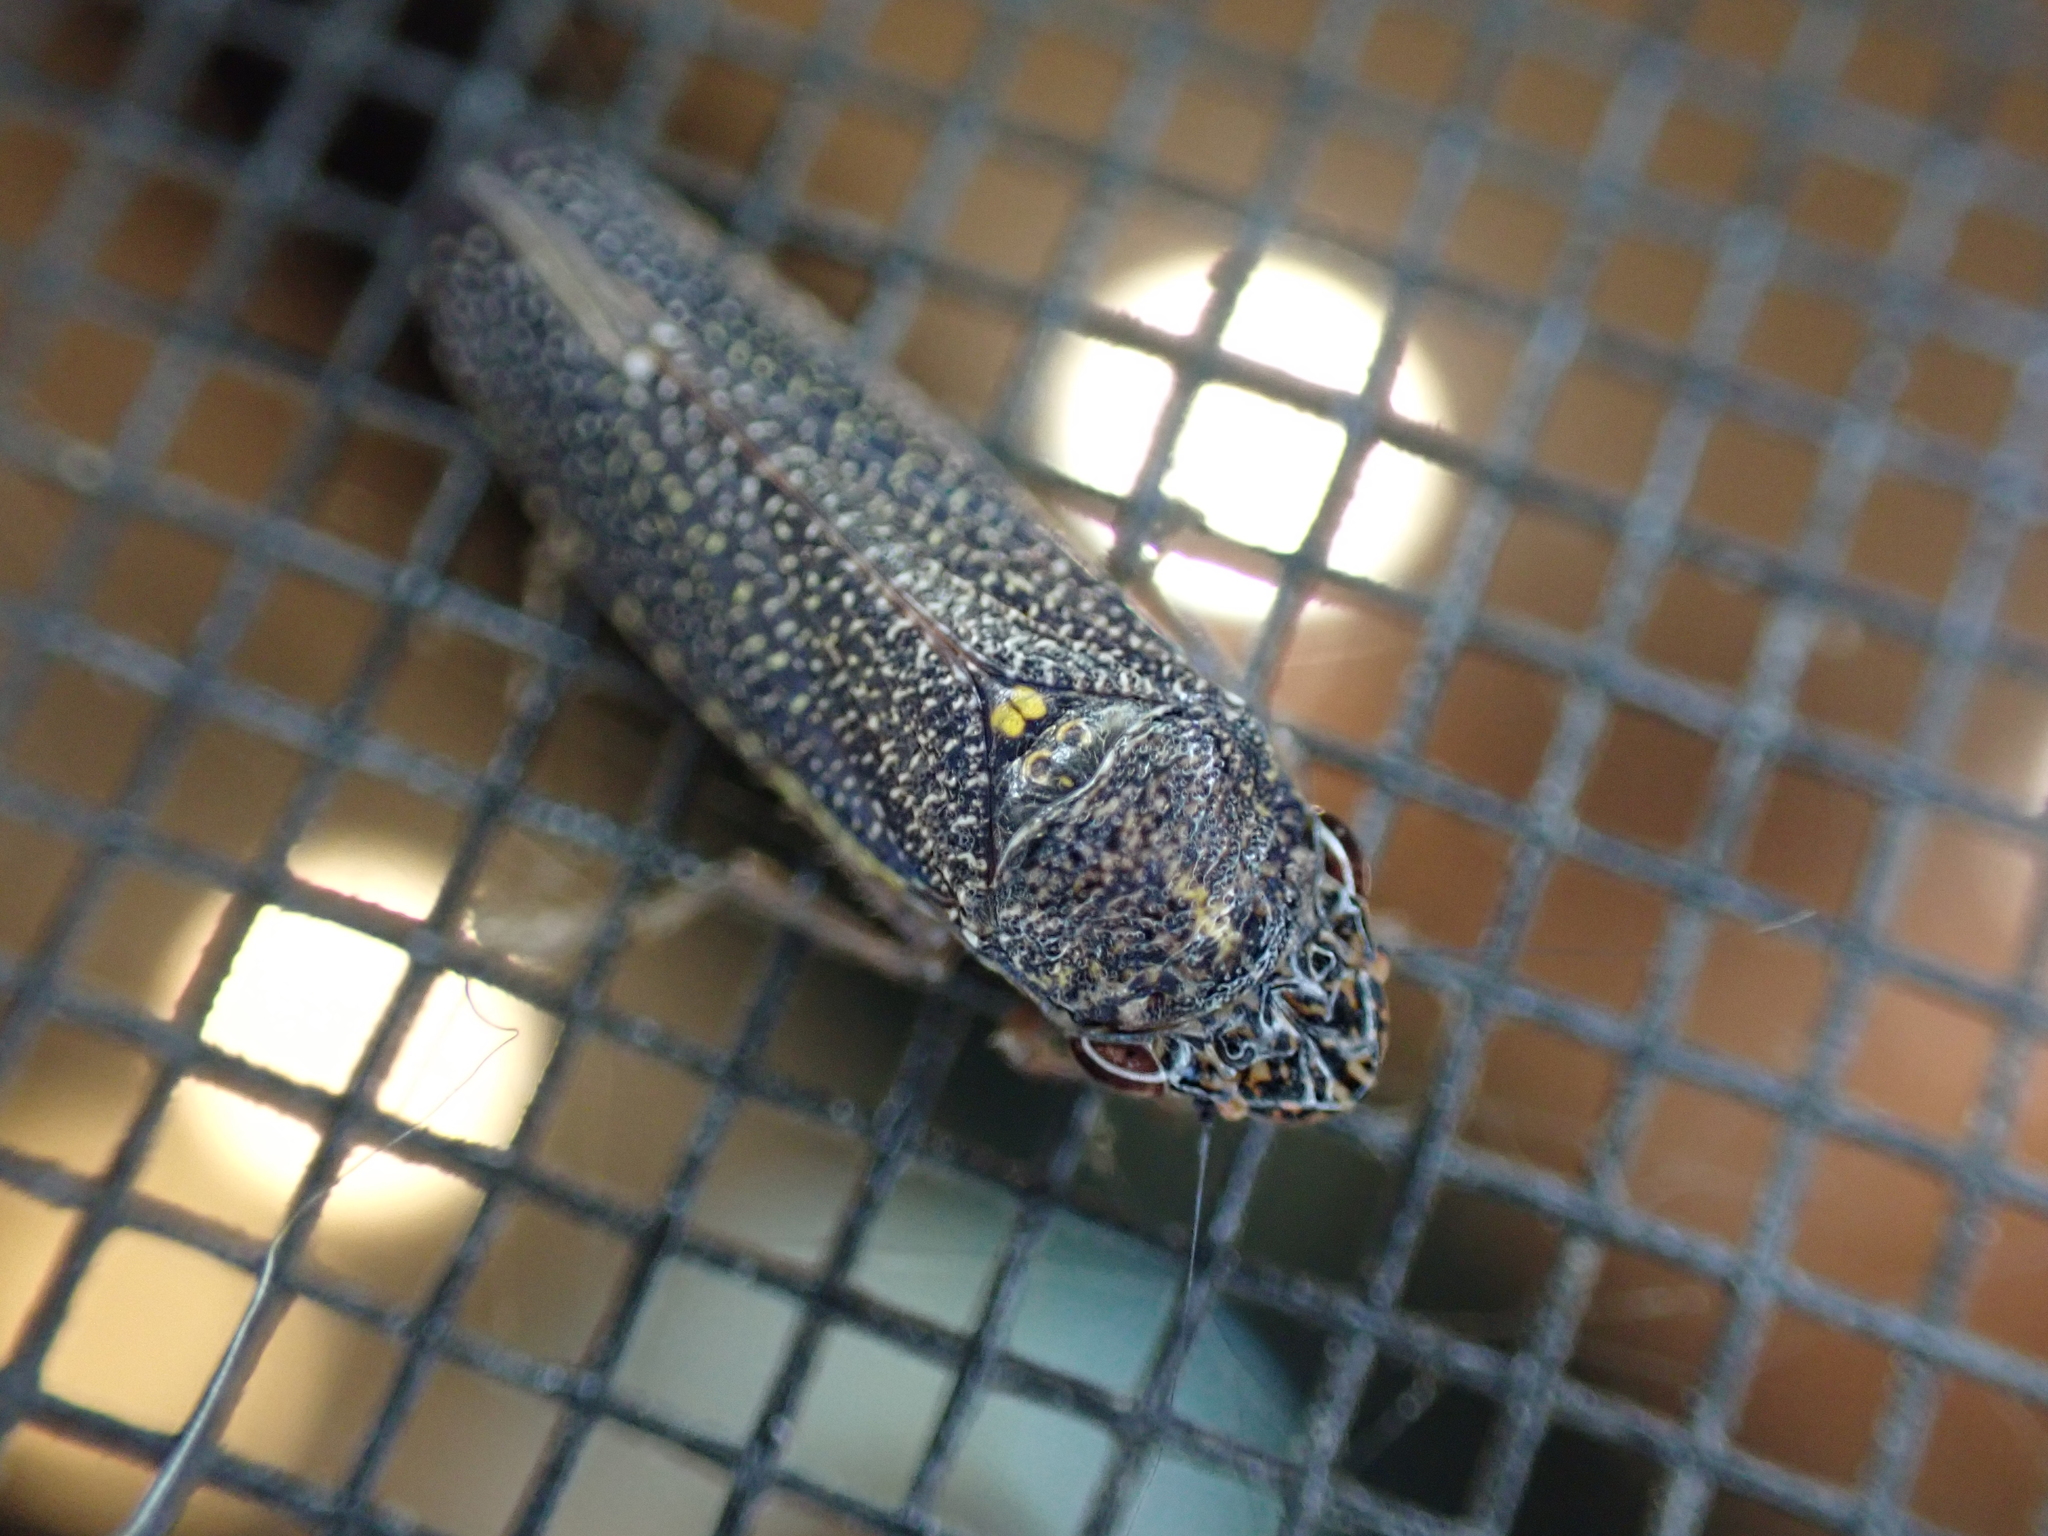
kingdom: Animalia
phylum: Arthropoda
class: Insecta
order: Hemiptera
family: Cicadellidae
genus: Paraulacizes
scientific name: Paraulacizes irrorata
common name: Speckled sharpshooter
